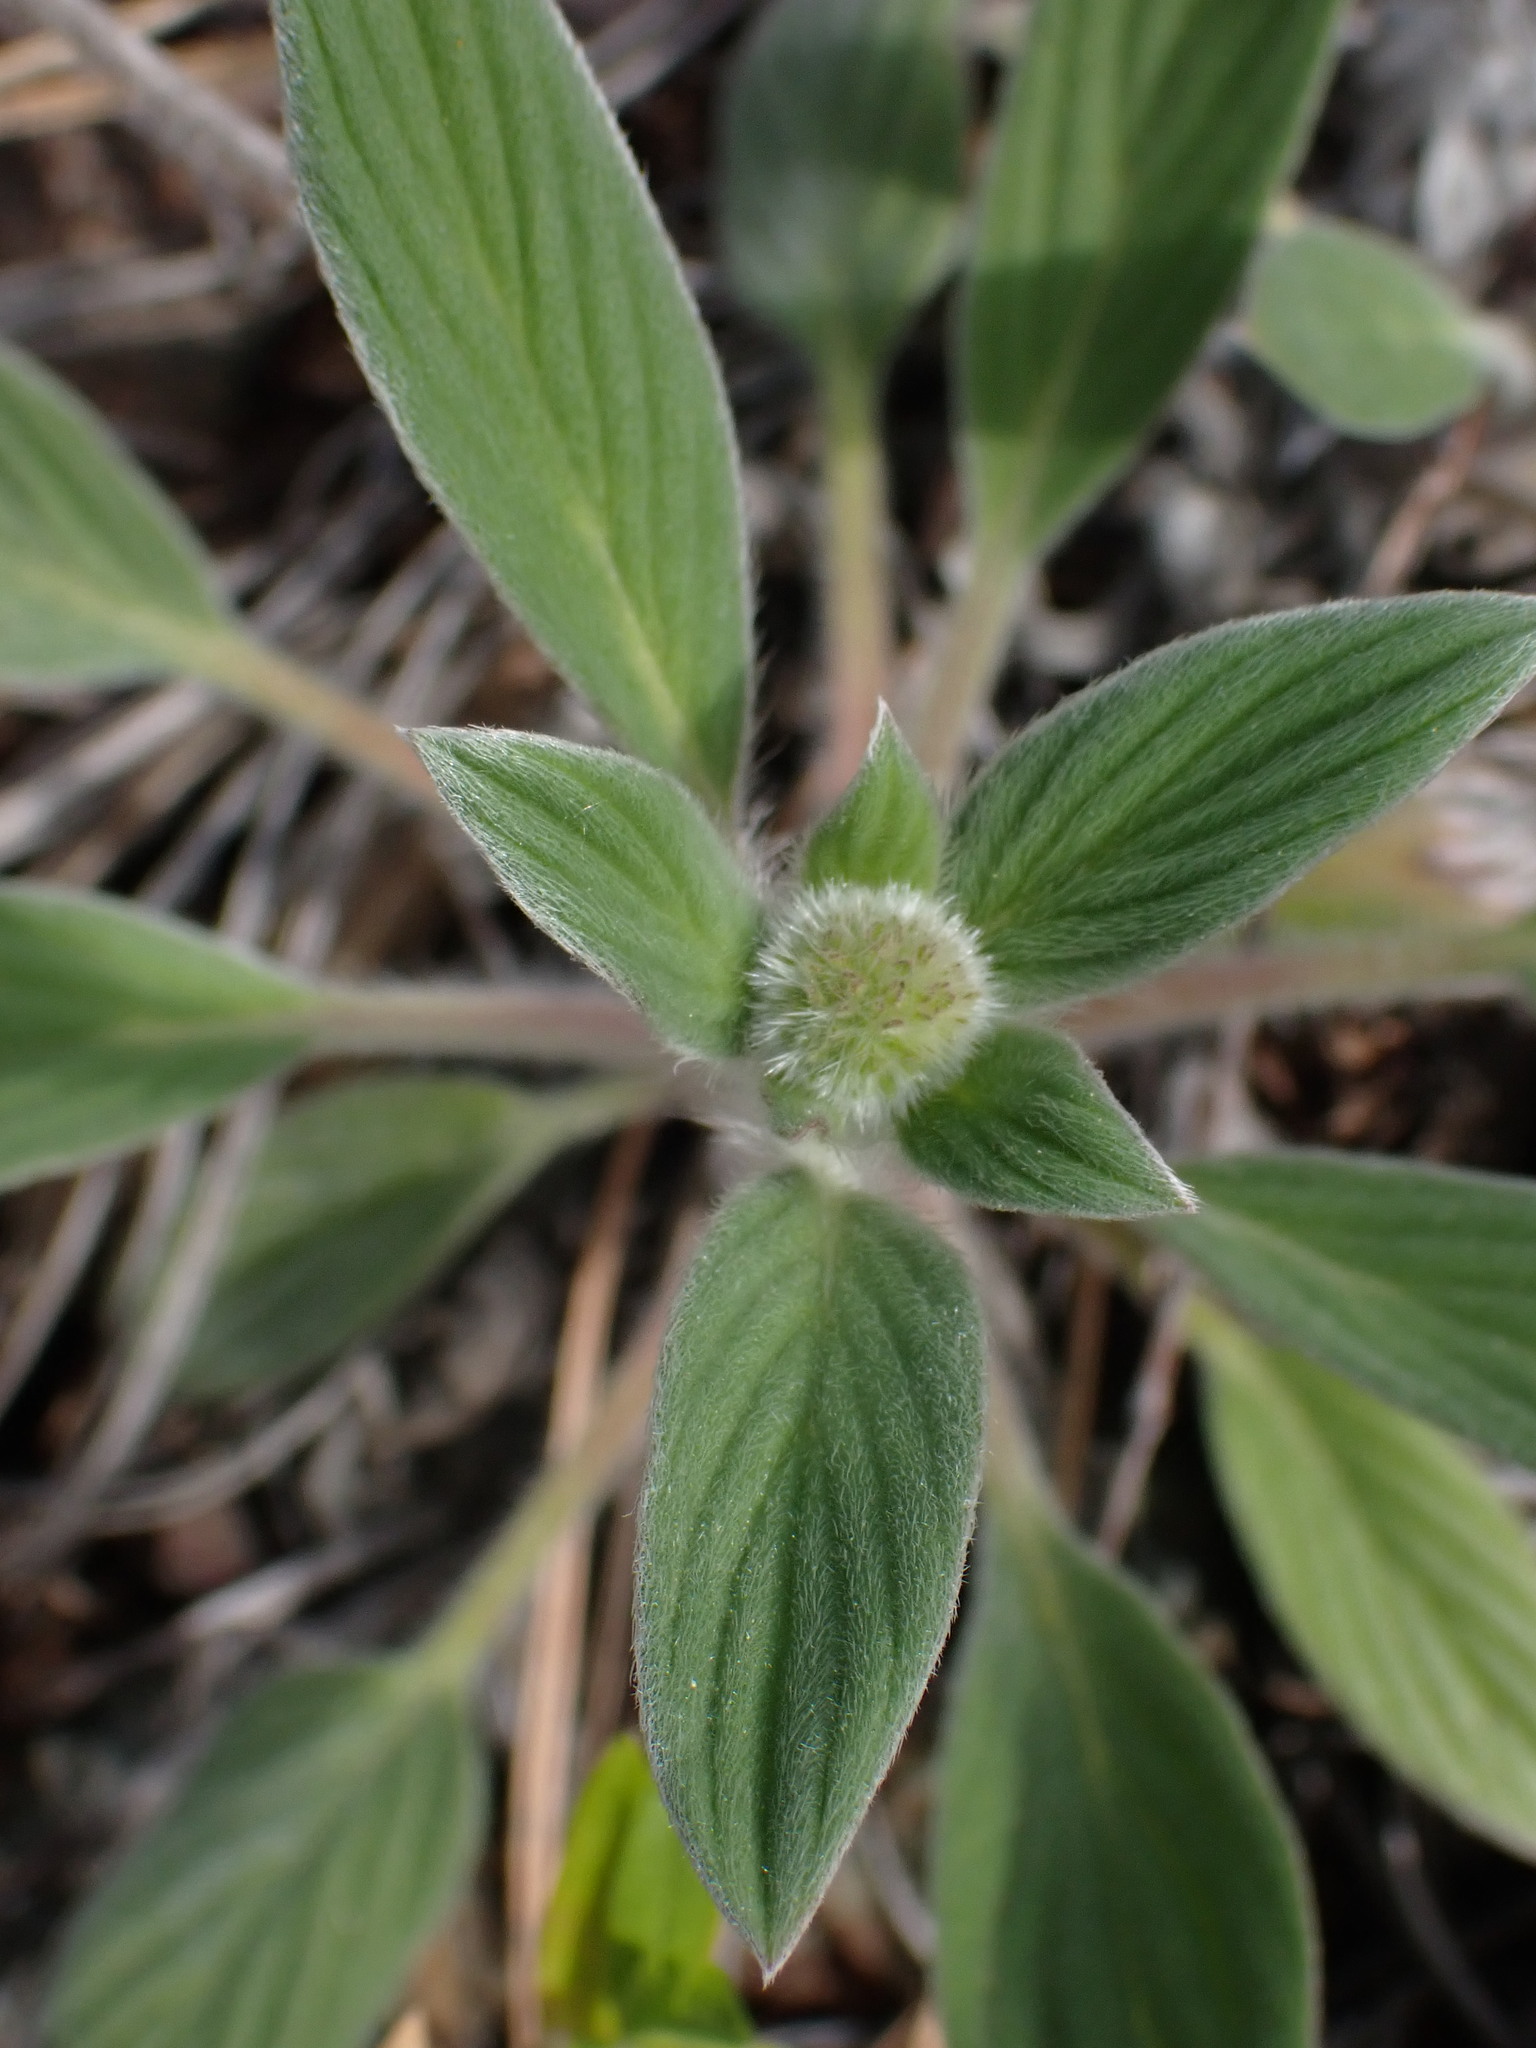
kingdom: Plantae
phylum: Tracheophyta
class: Magnoliopsida
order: Boraginales
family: Hydrophyllaceae
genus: Phacelia
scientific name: Phacelia hastata
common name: Silver-leaved phacelia
